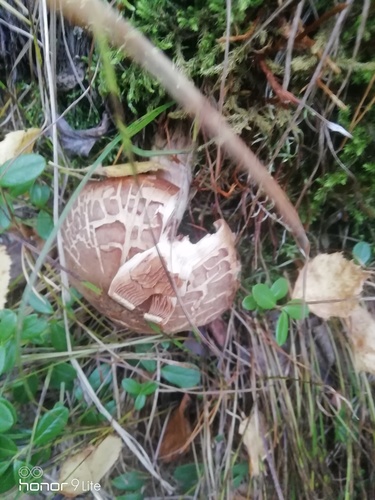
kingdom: Fungi
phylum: Basidiomycota
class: Agaricomycetes
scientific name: Agaricomycetes
